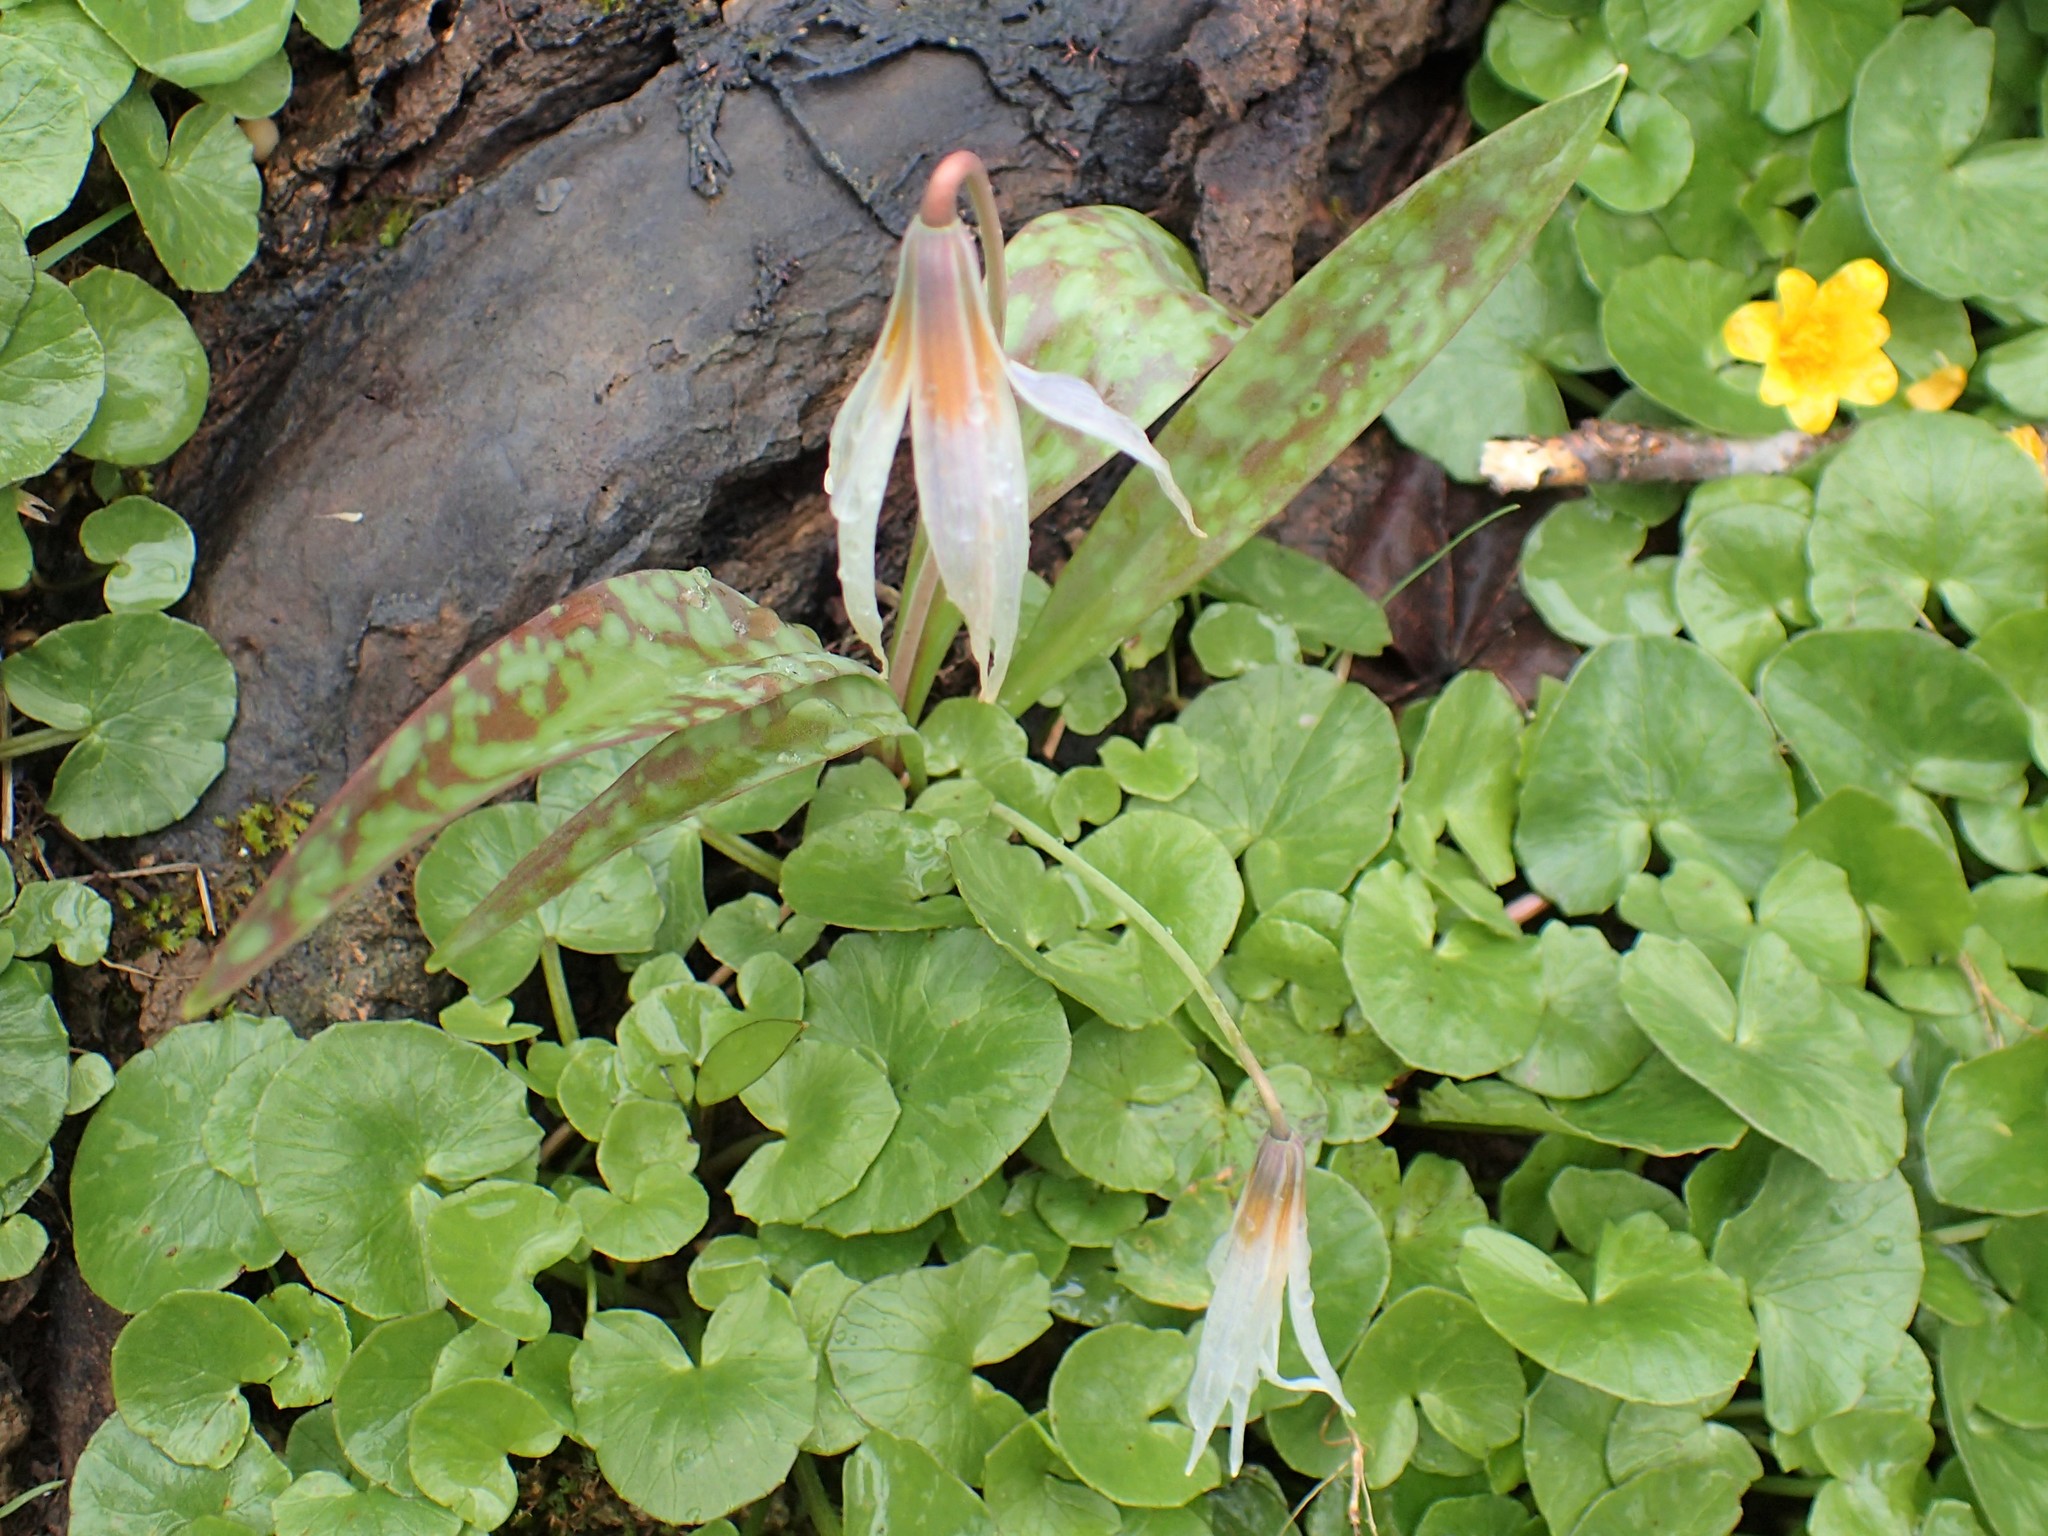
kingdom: Plantae
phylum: Tracheophyta
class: Liliopsida
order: Liliales
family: Liliaceae
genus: Erythronium
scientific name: Erythronium albidum
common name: White trout-lily
